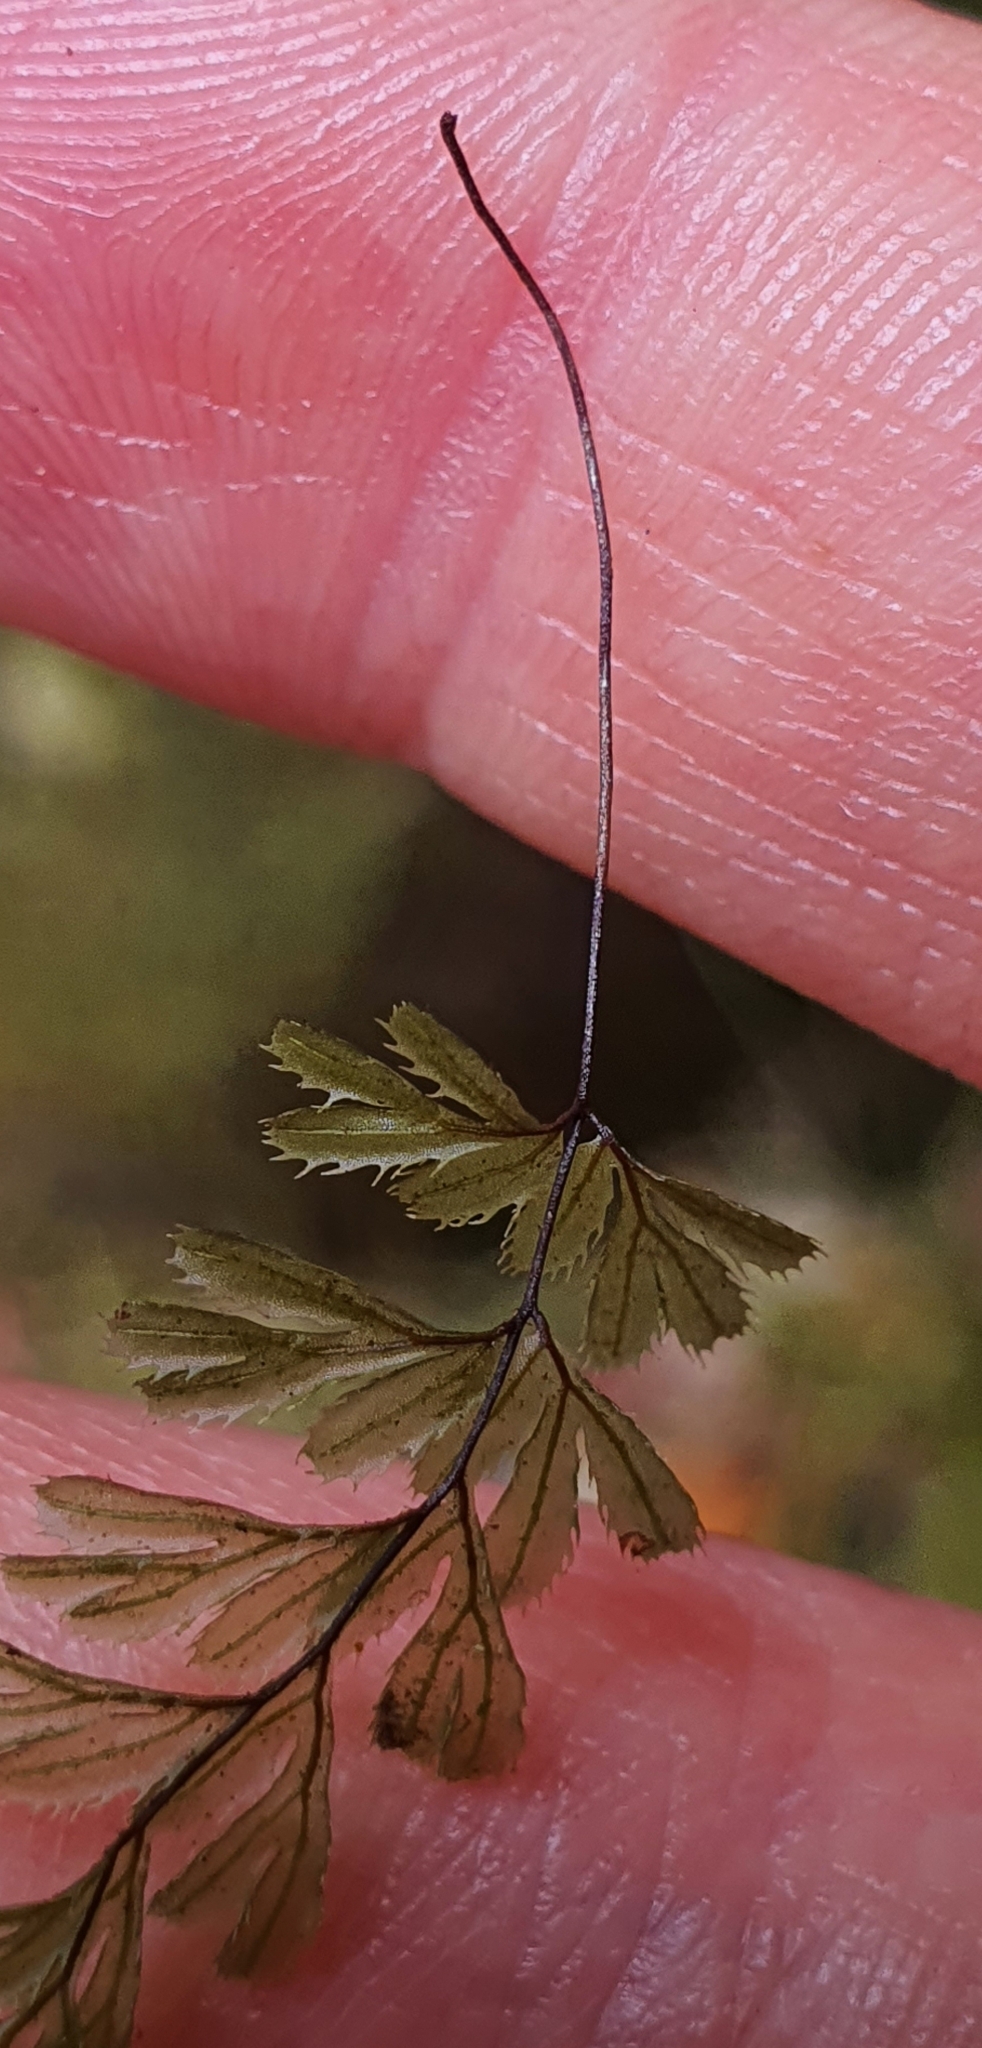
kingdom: Plantae
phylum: Tracheophyta
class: Polypodiopsida
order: Hymenophyllales
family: Hymenophyllaceae
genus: Hymenophyllum
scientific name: Hymenophyllum revolutum
